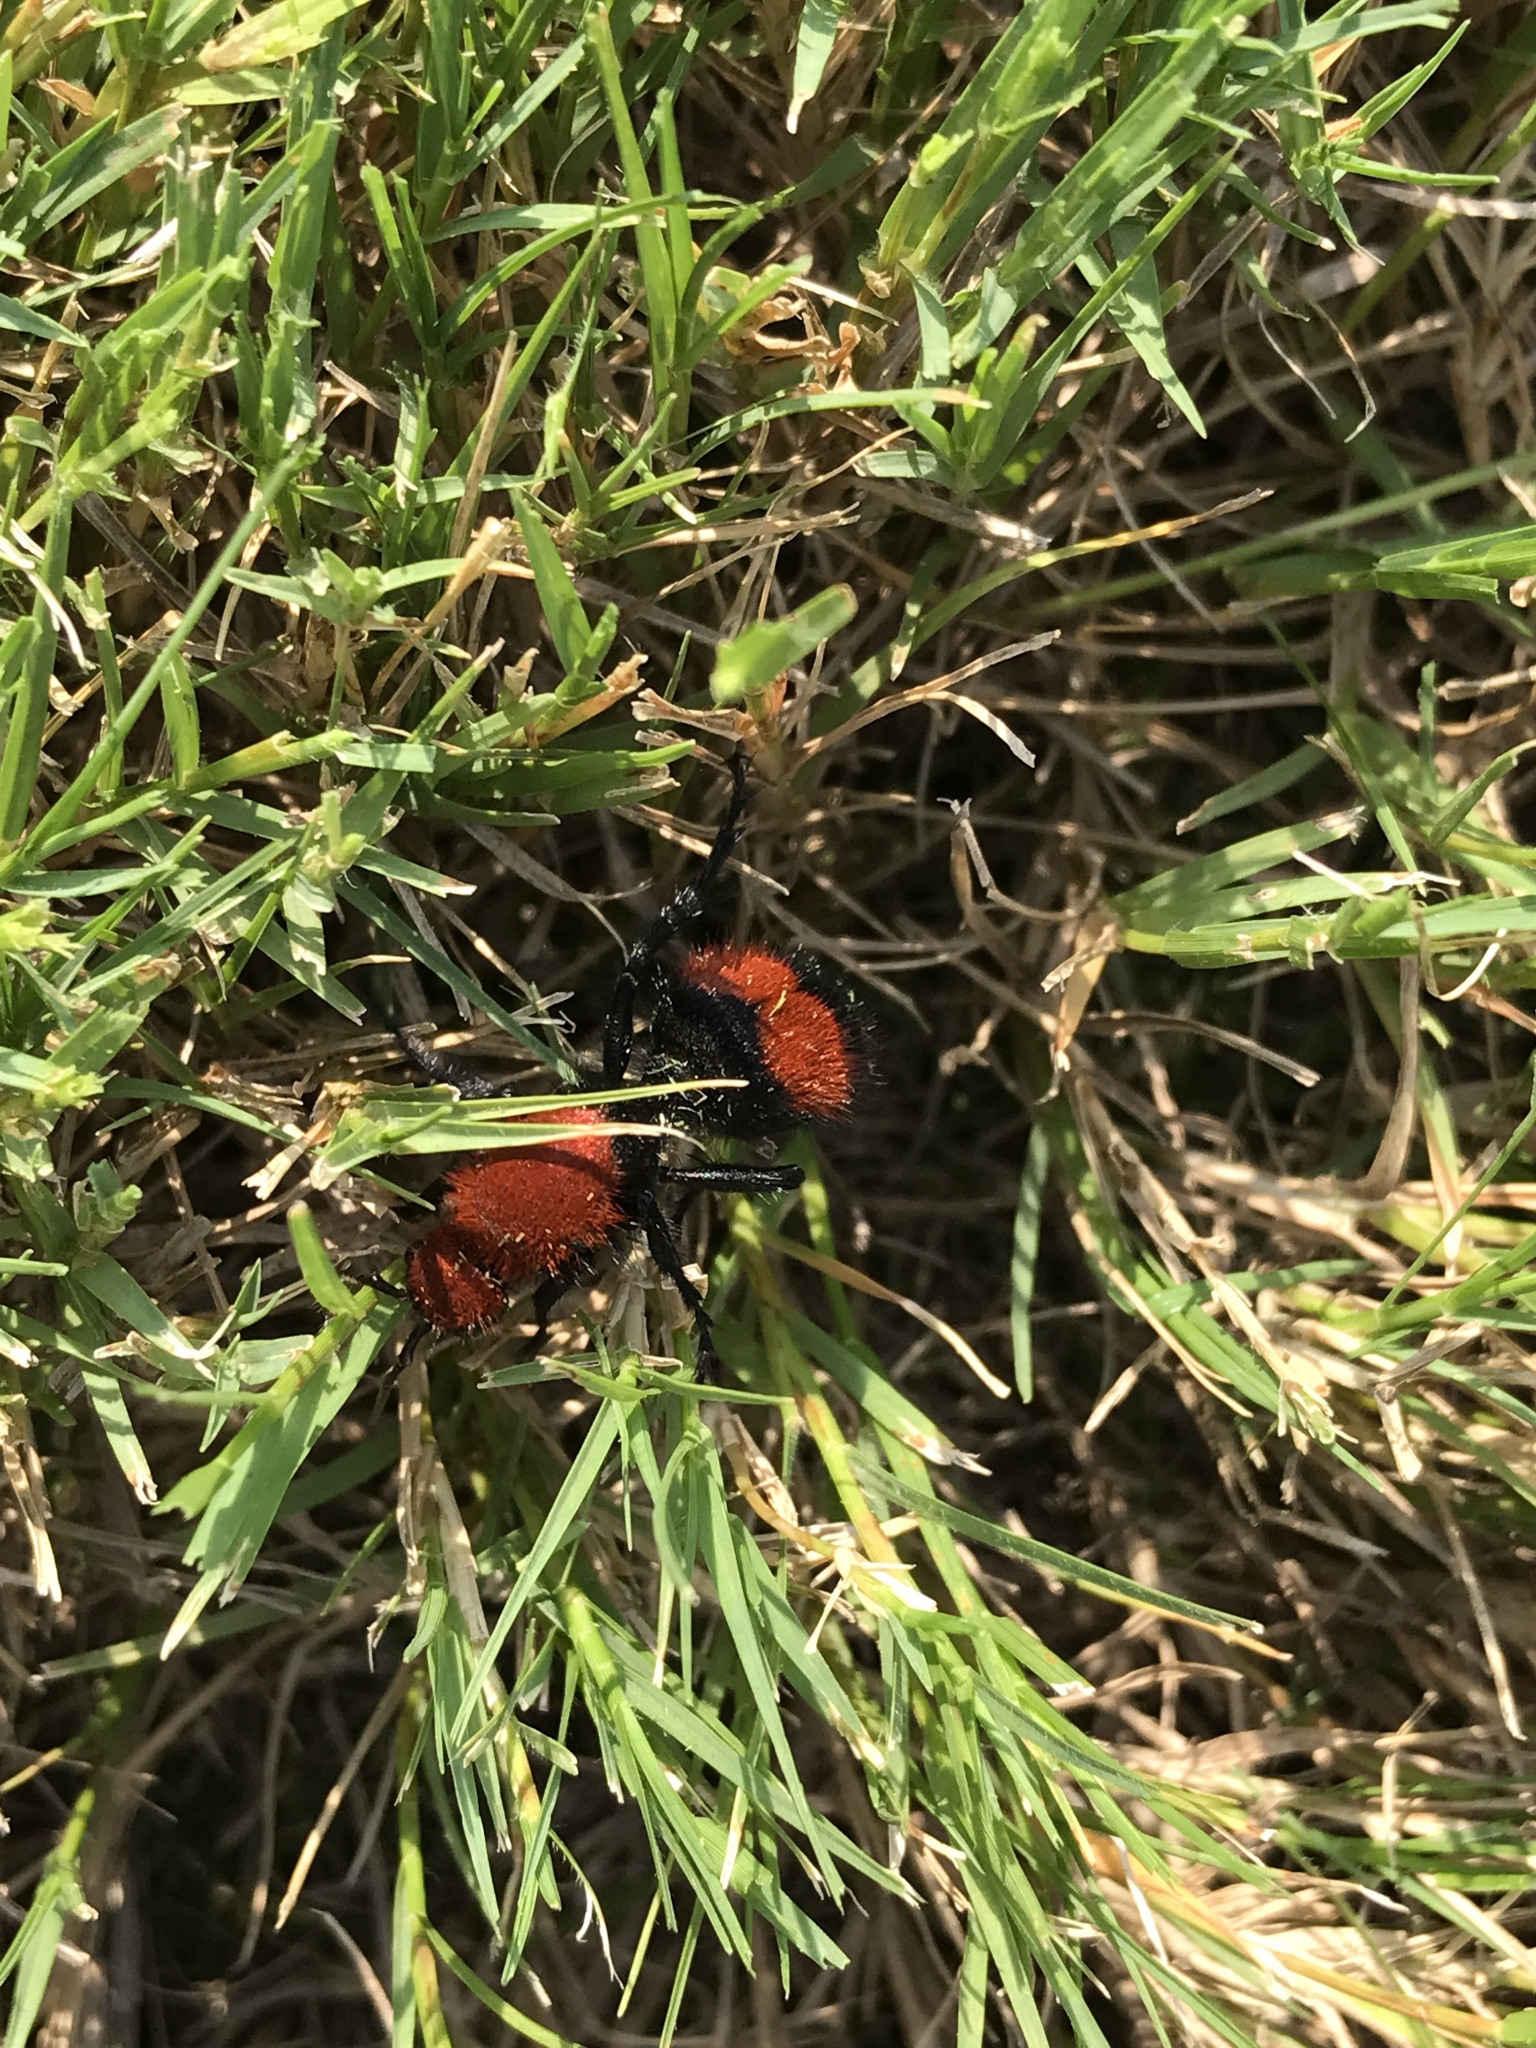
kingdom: Animalia
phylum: Arthropoda
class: Insecta
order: Hymenoptera
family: Mutillidae
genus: Dasymutilla
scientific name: Dasymutilla occidentalis
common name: Common eastern velvet ant
